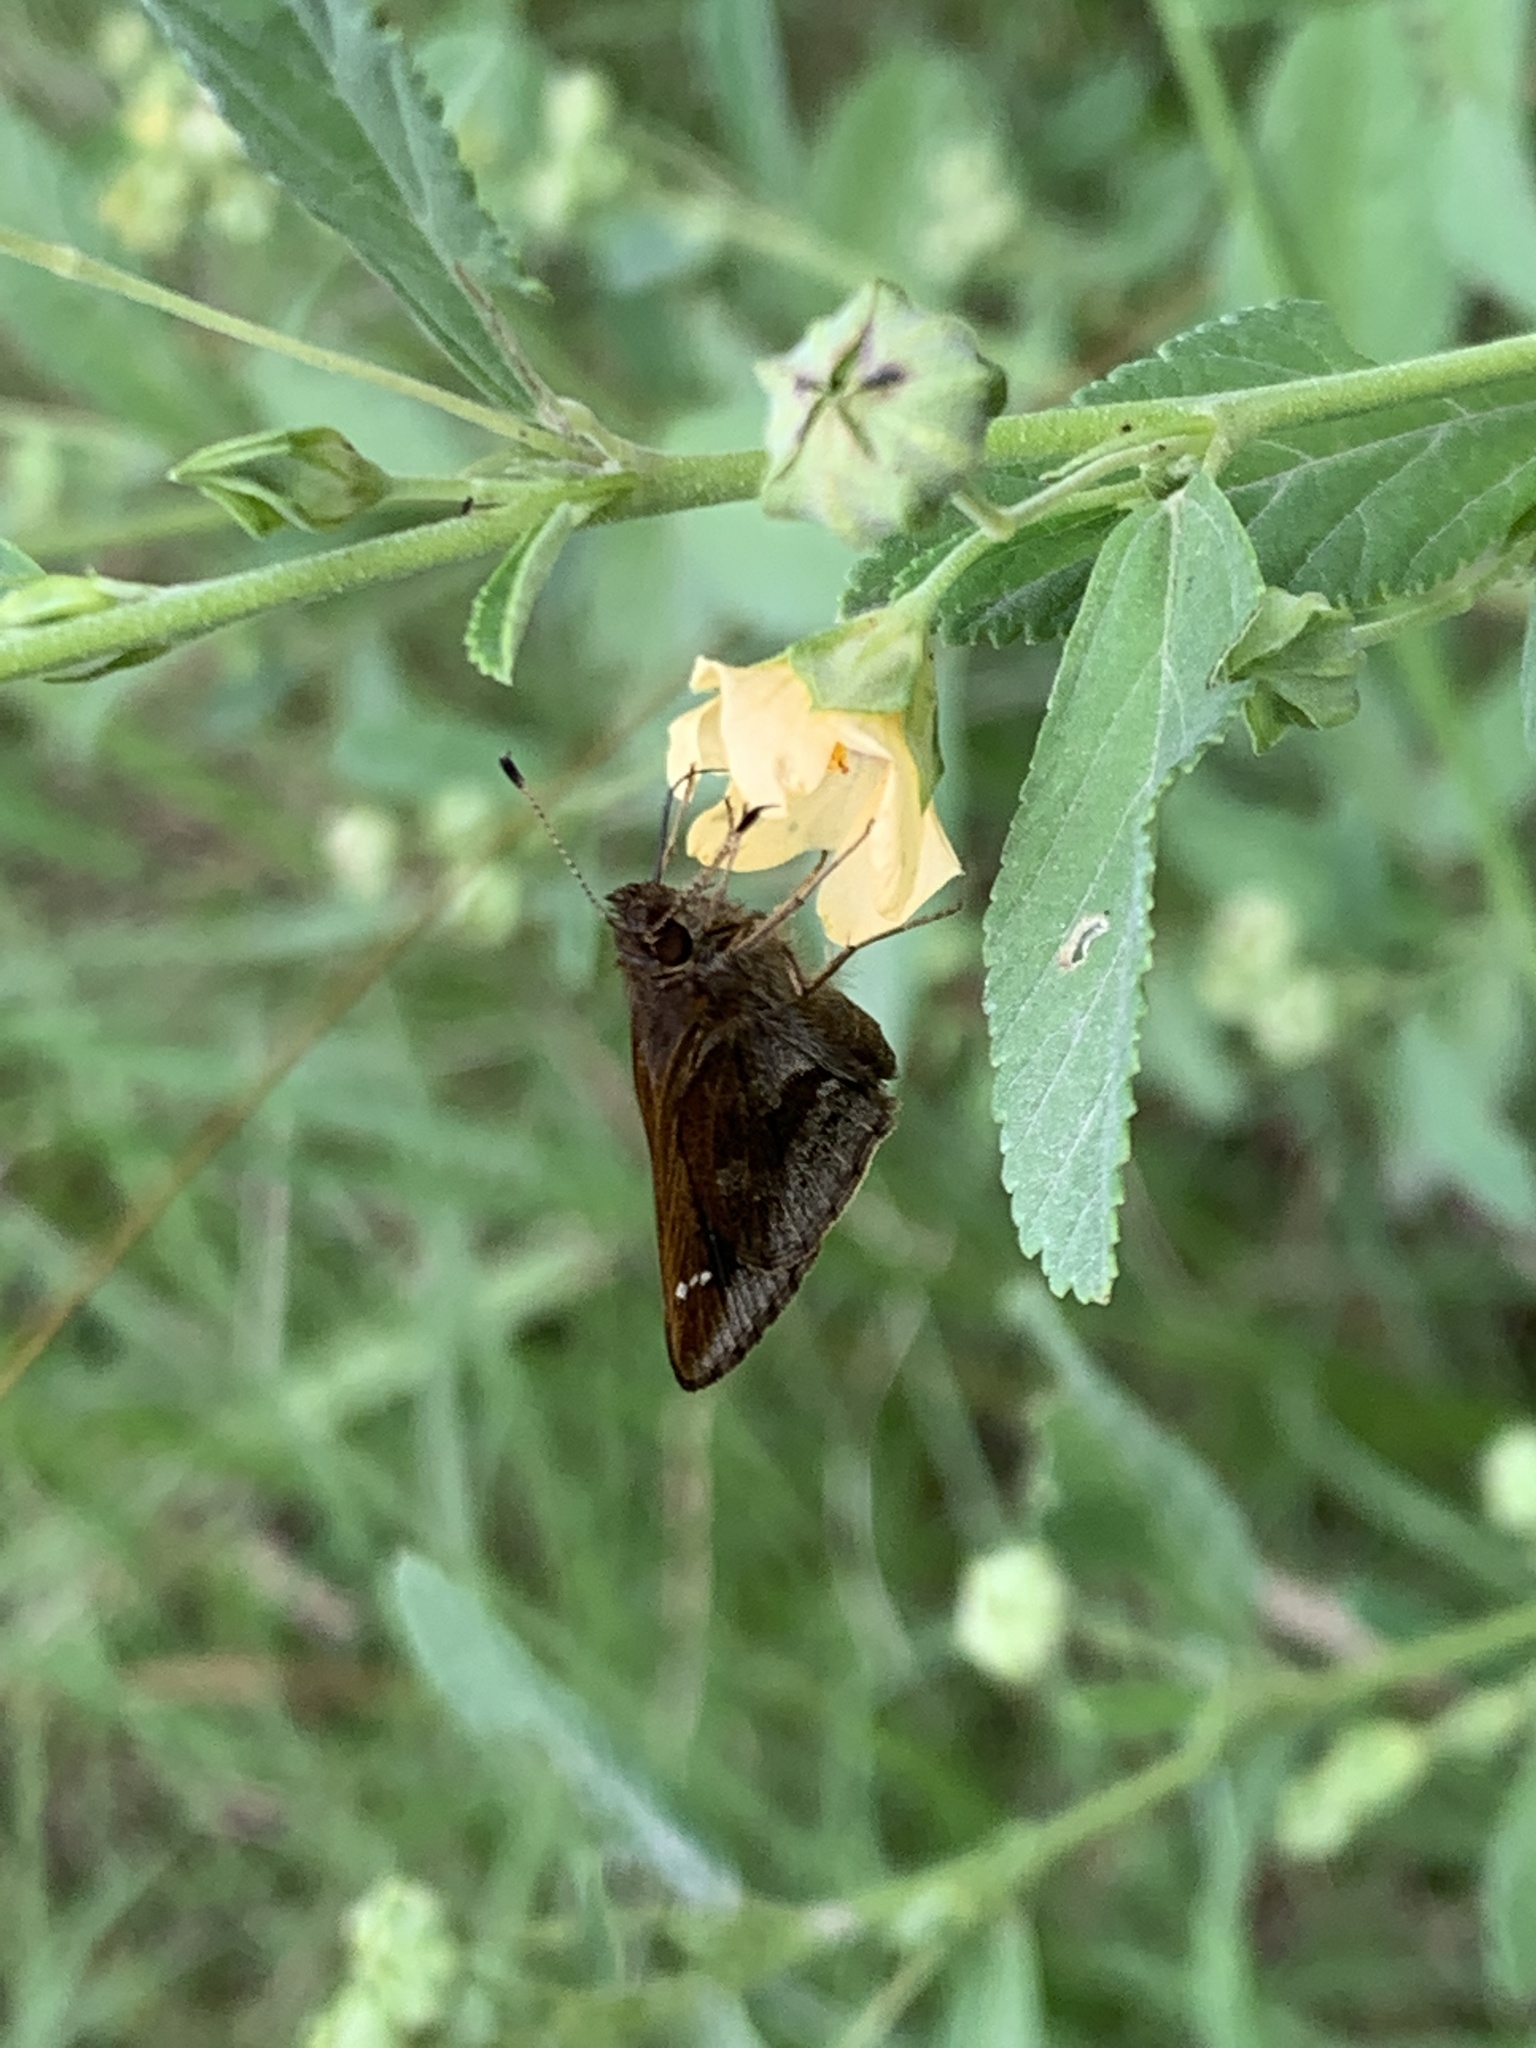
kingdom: Animalia
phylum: Arthropoda
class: Insecta
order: Lepidoptera
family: Hesperiidae
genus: Cymaenes
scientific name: Cymaenes
